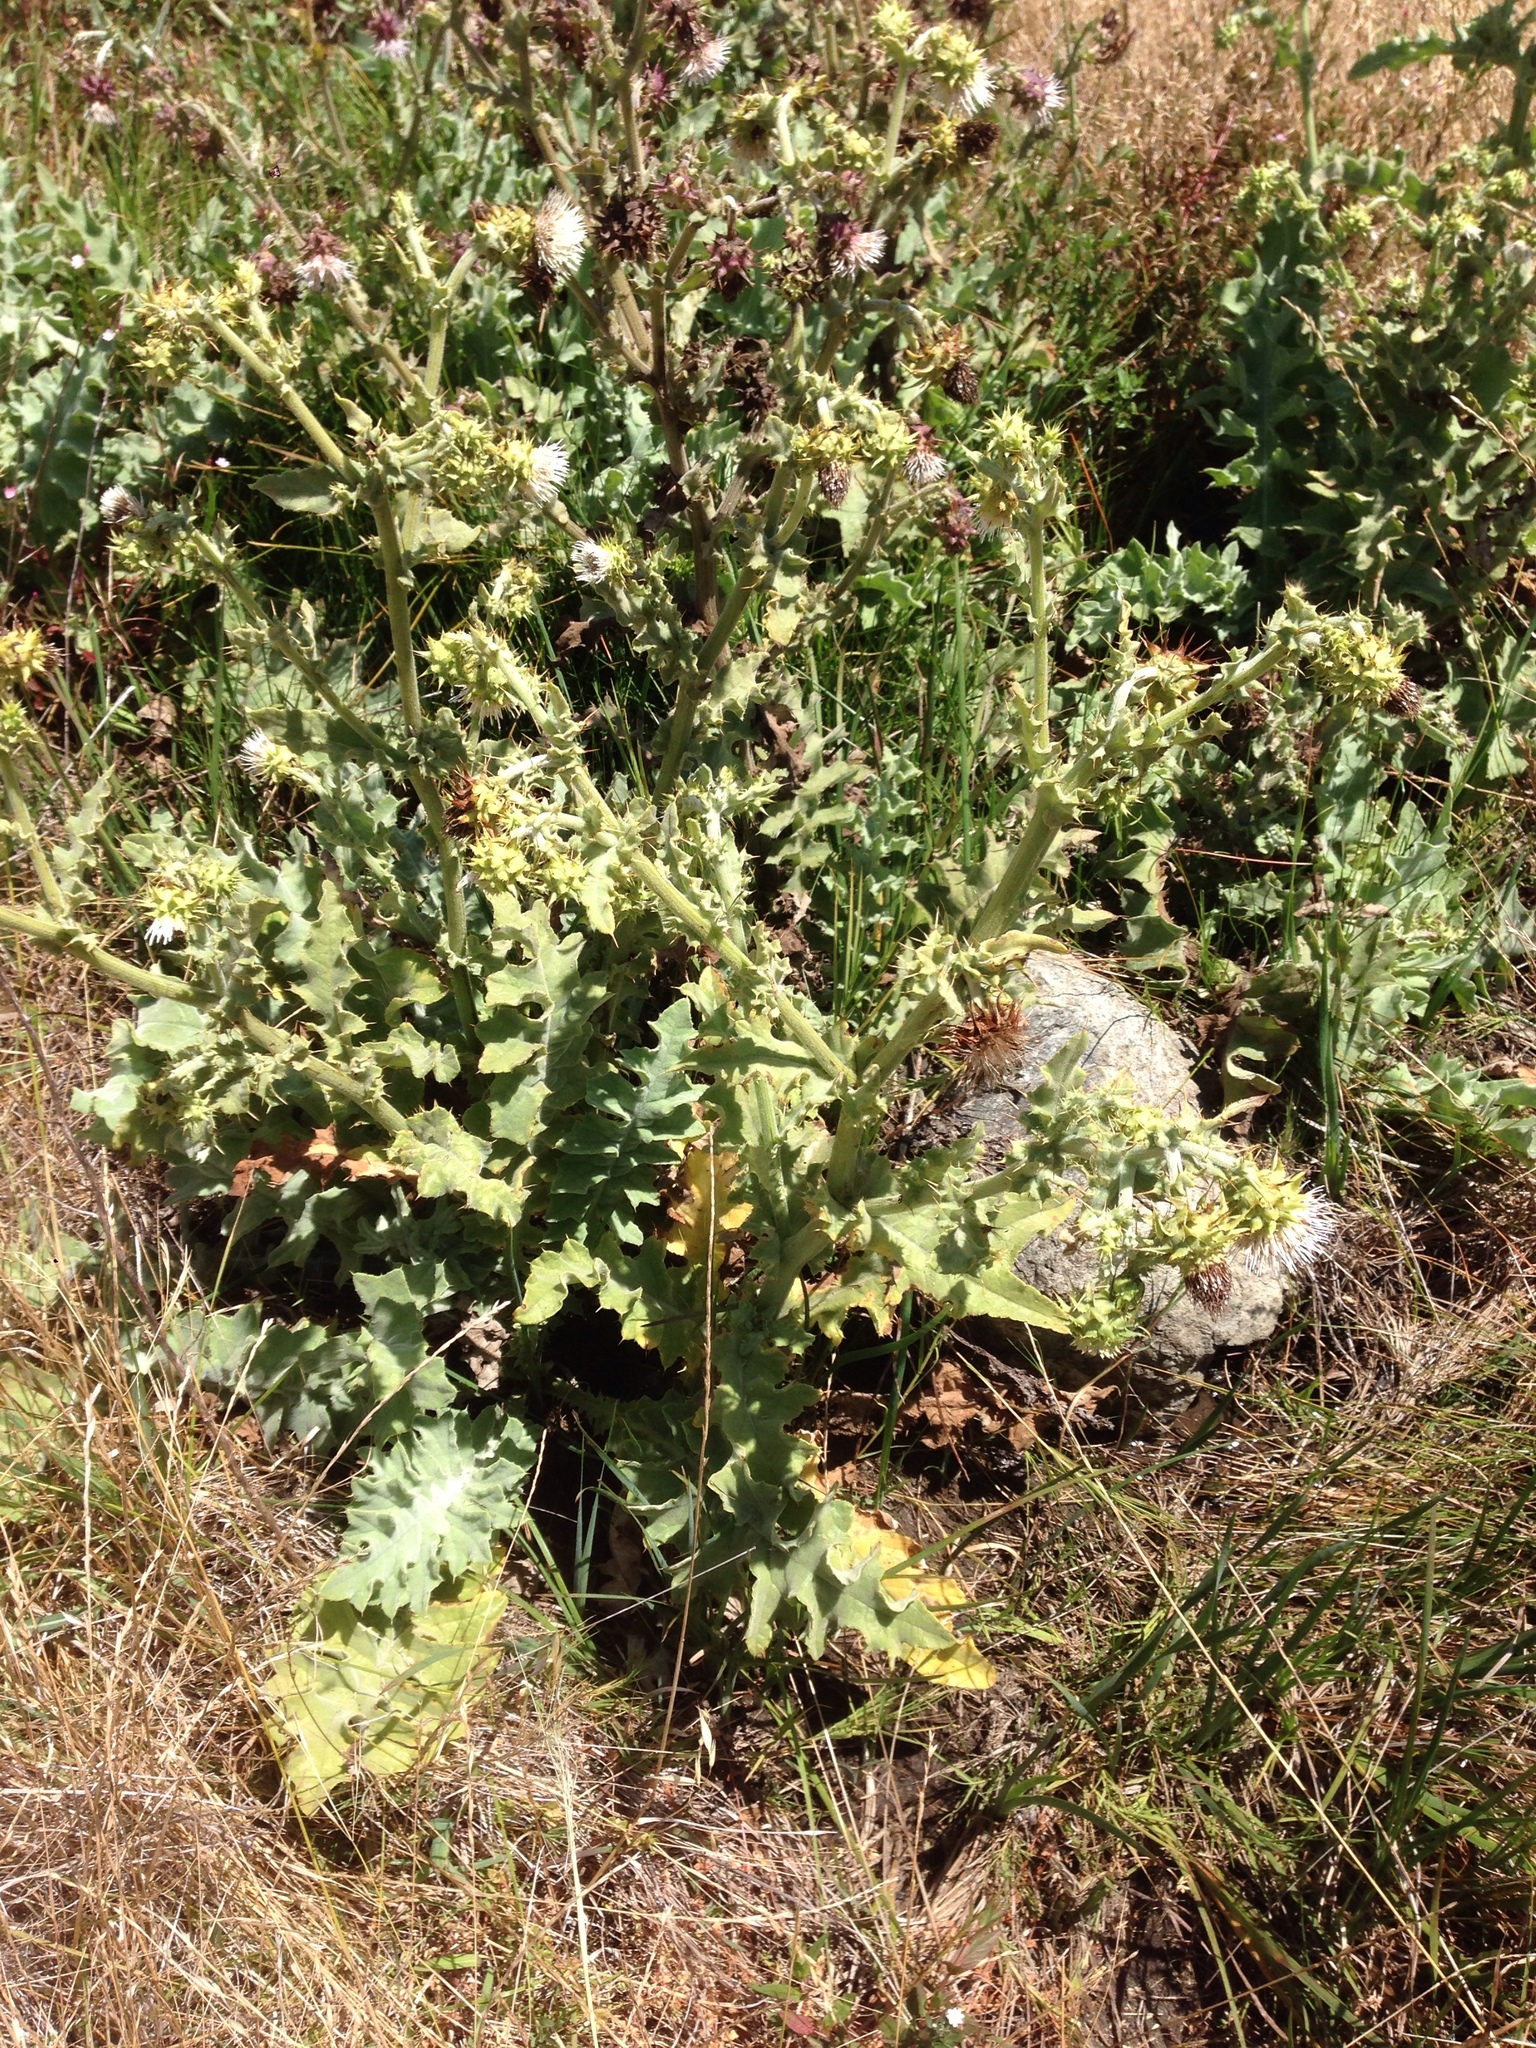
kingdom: Plantae
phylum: Tracheophyta
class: Magnoliopsida
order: Asterales
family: Asteraceae
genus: Cirsium
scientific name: Cirsium fontinale
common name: Fountain thistle
